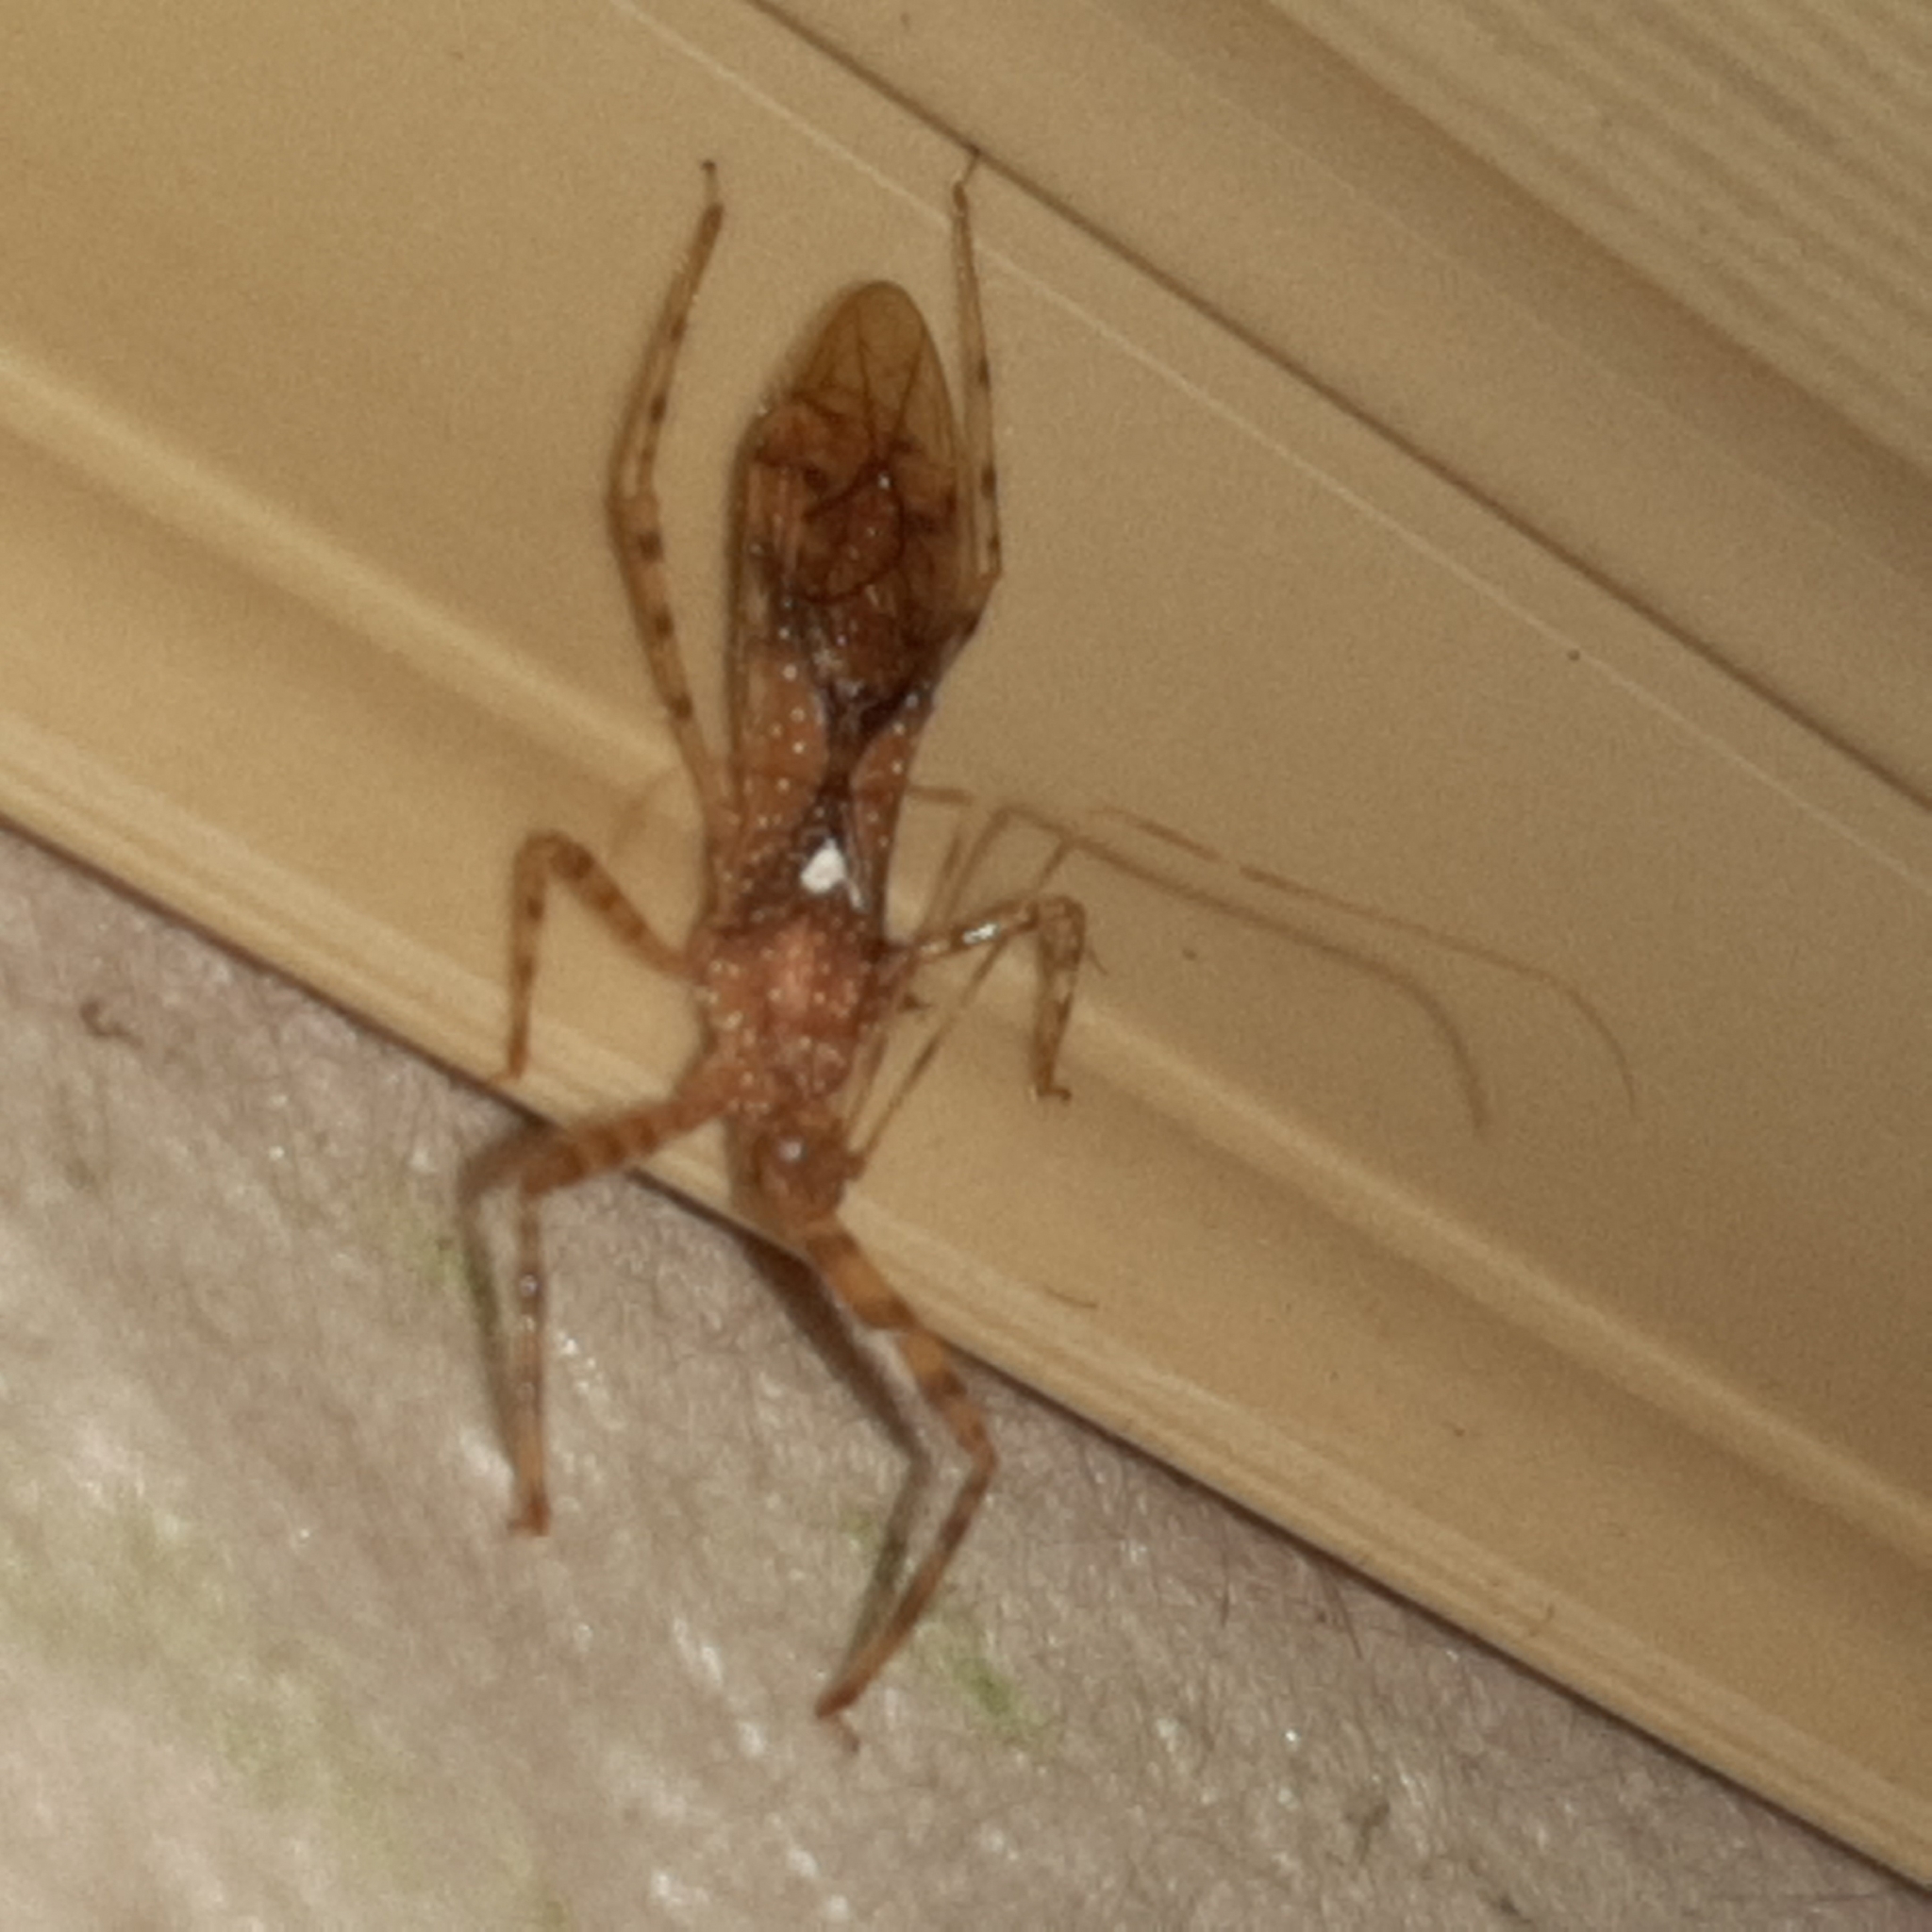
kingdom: Animalia
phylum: Arthropoda
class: Insecta
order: Hemiptera
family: Reduviidae
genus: Rocconota
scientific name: Rocconota octospina
